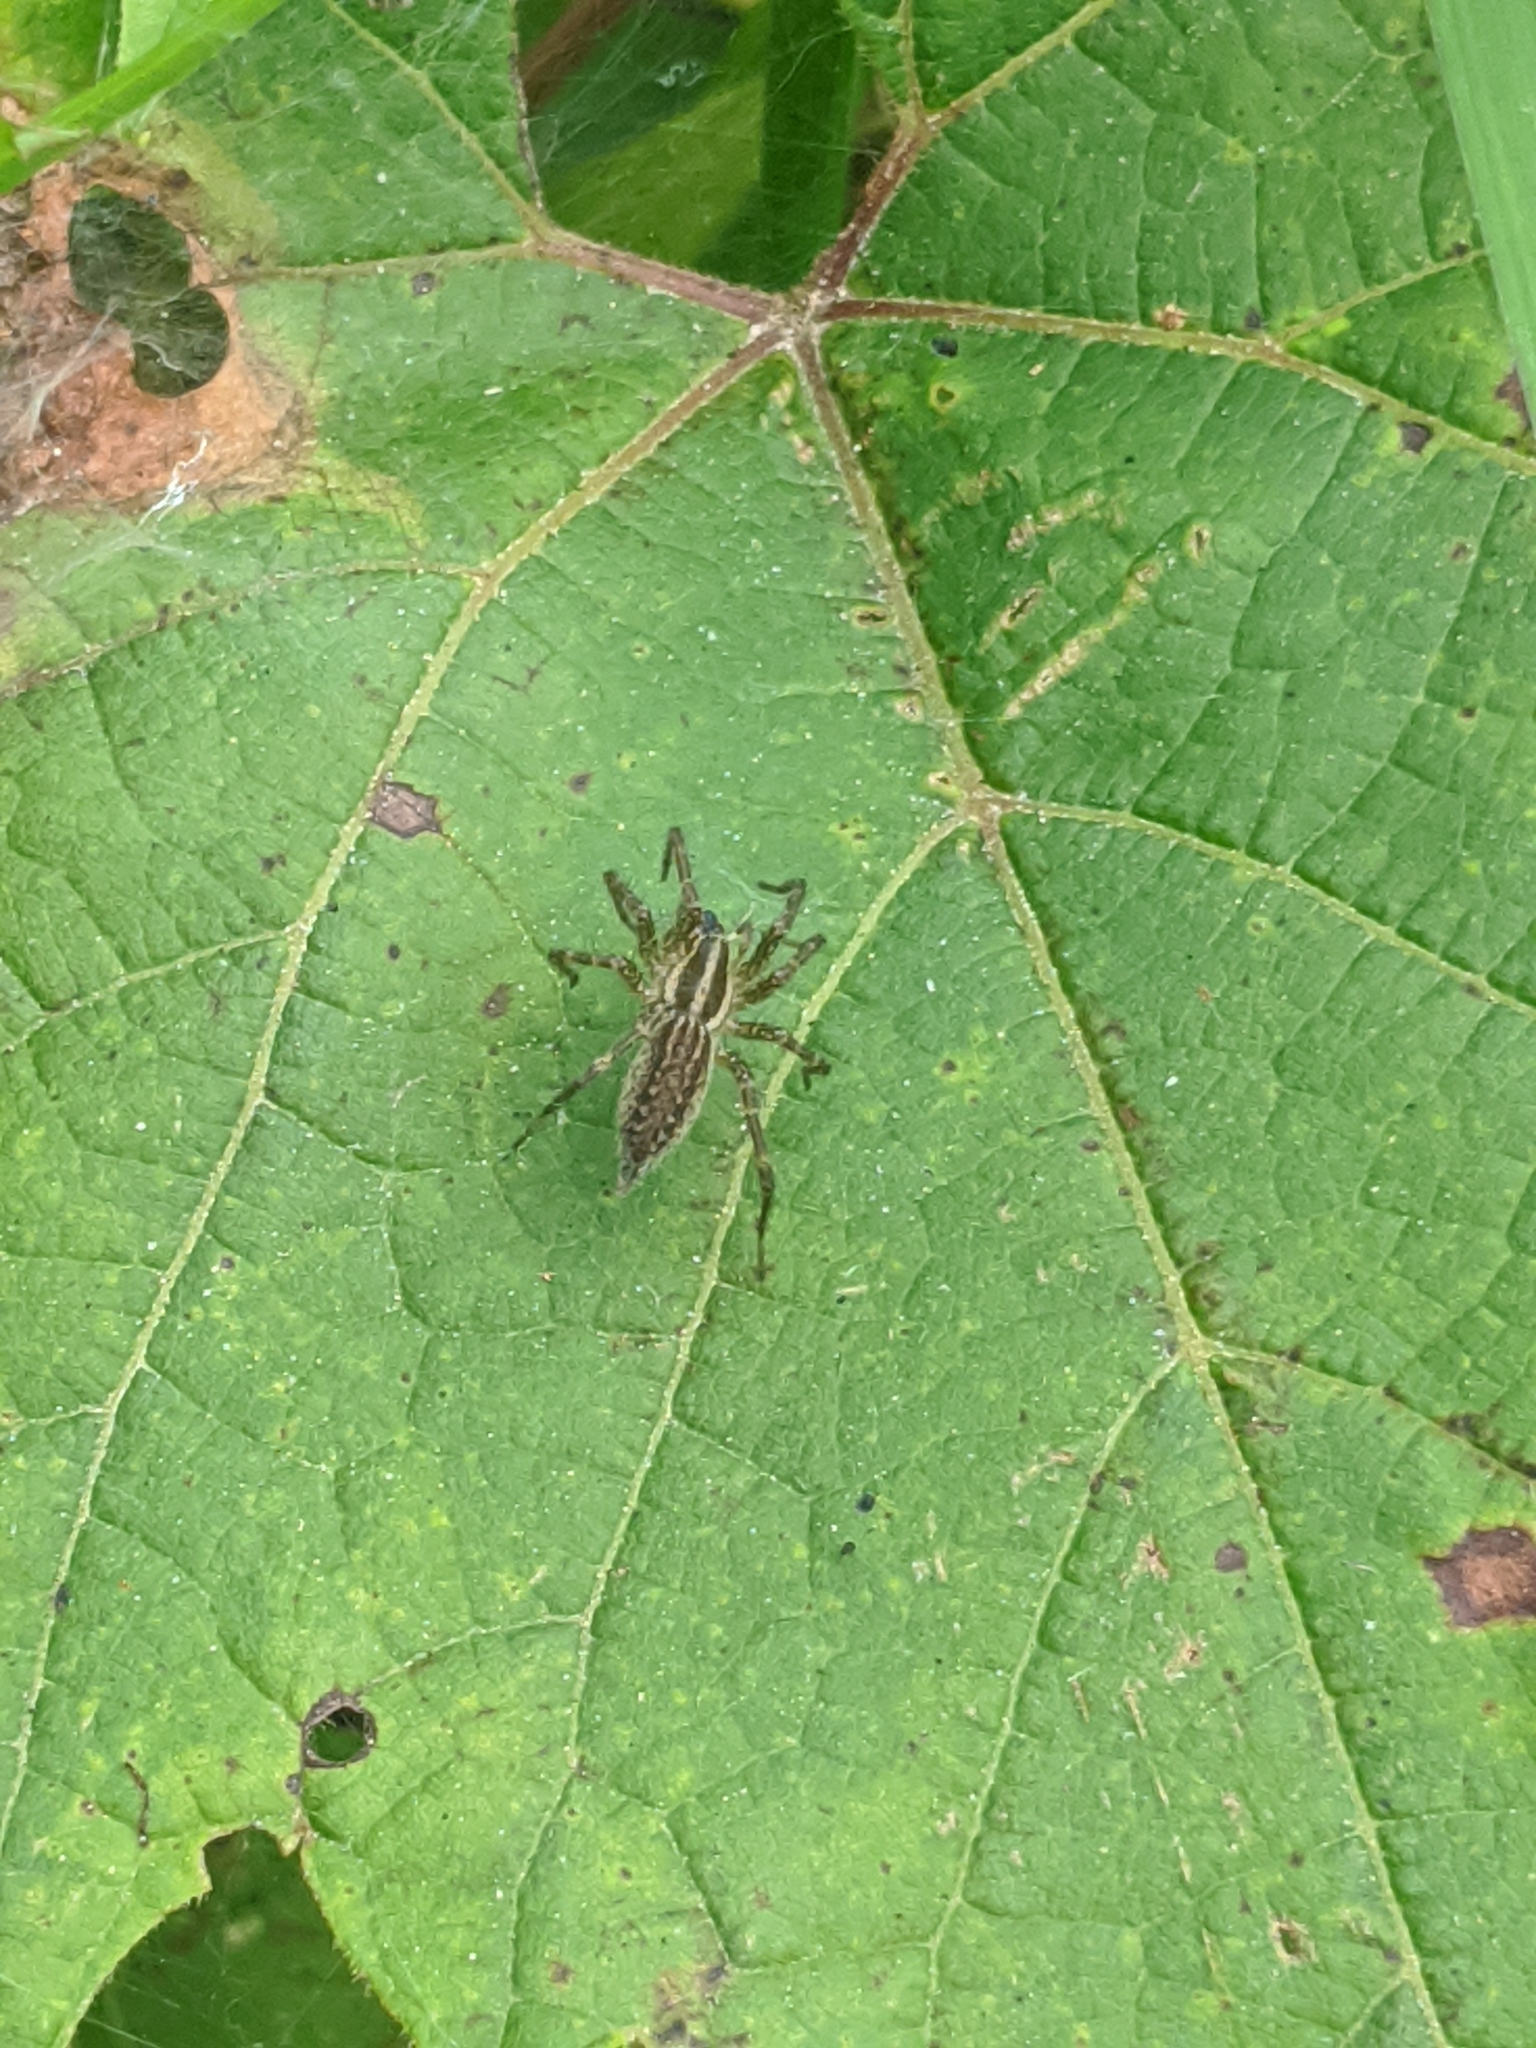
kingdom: Animalia
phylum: Arthropoda
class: Arachnida
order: Araneae
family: Agelenidae
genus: Agelenopsis
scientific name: Agelenopsis
